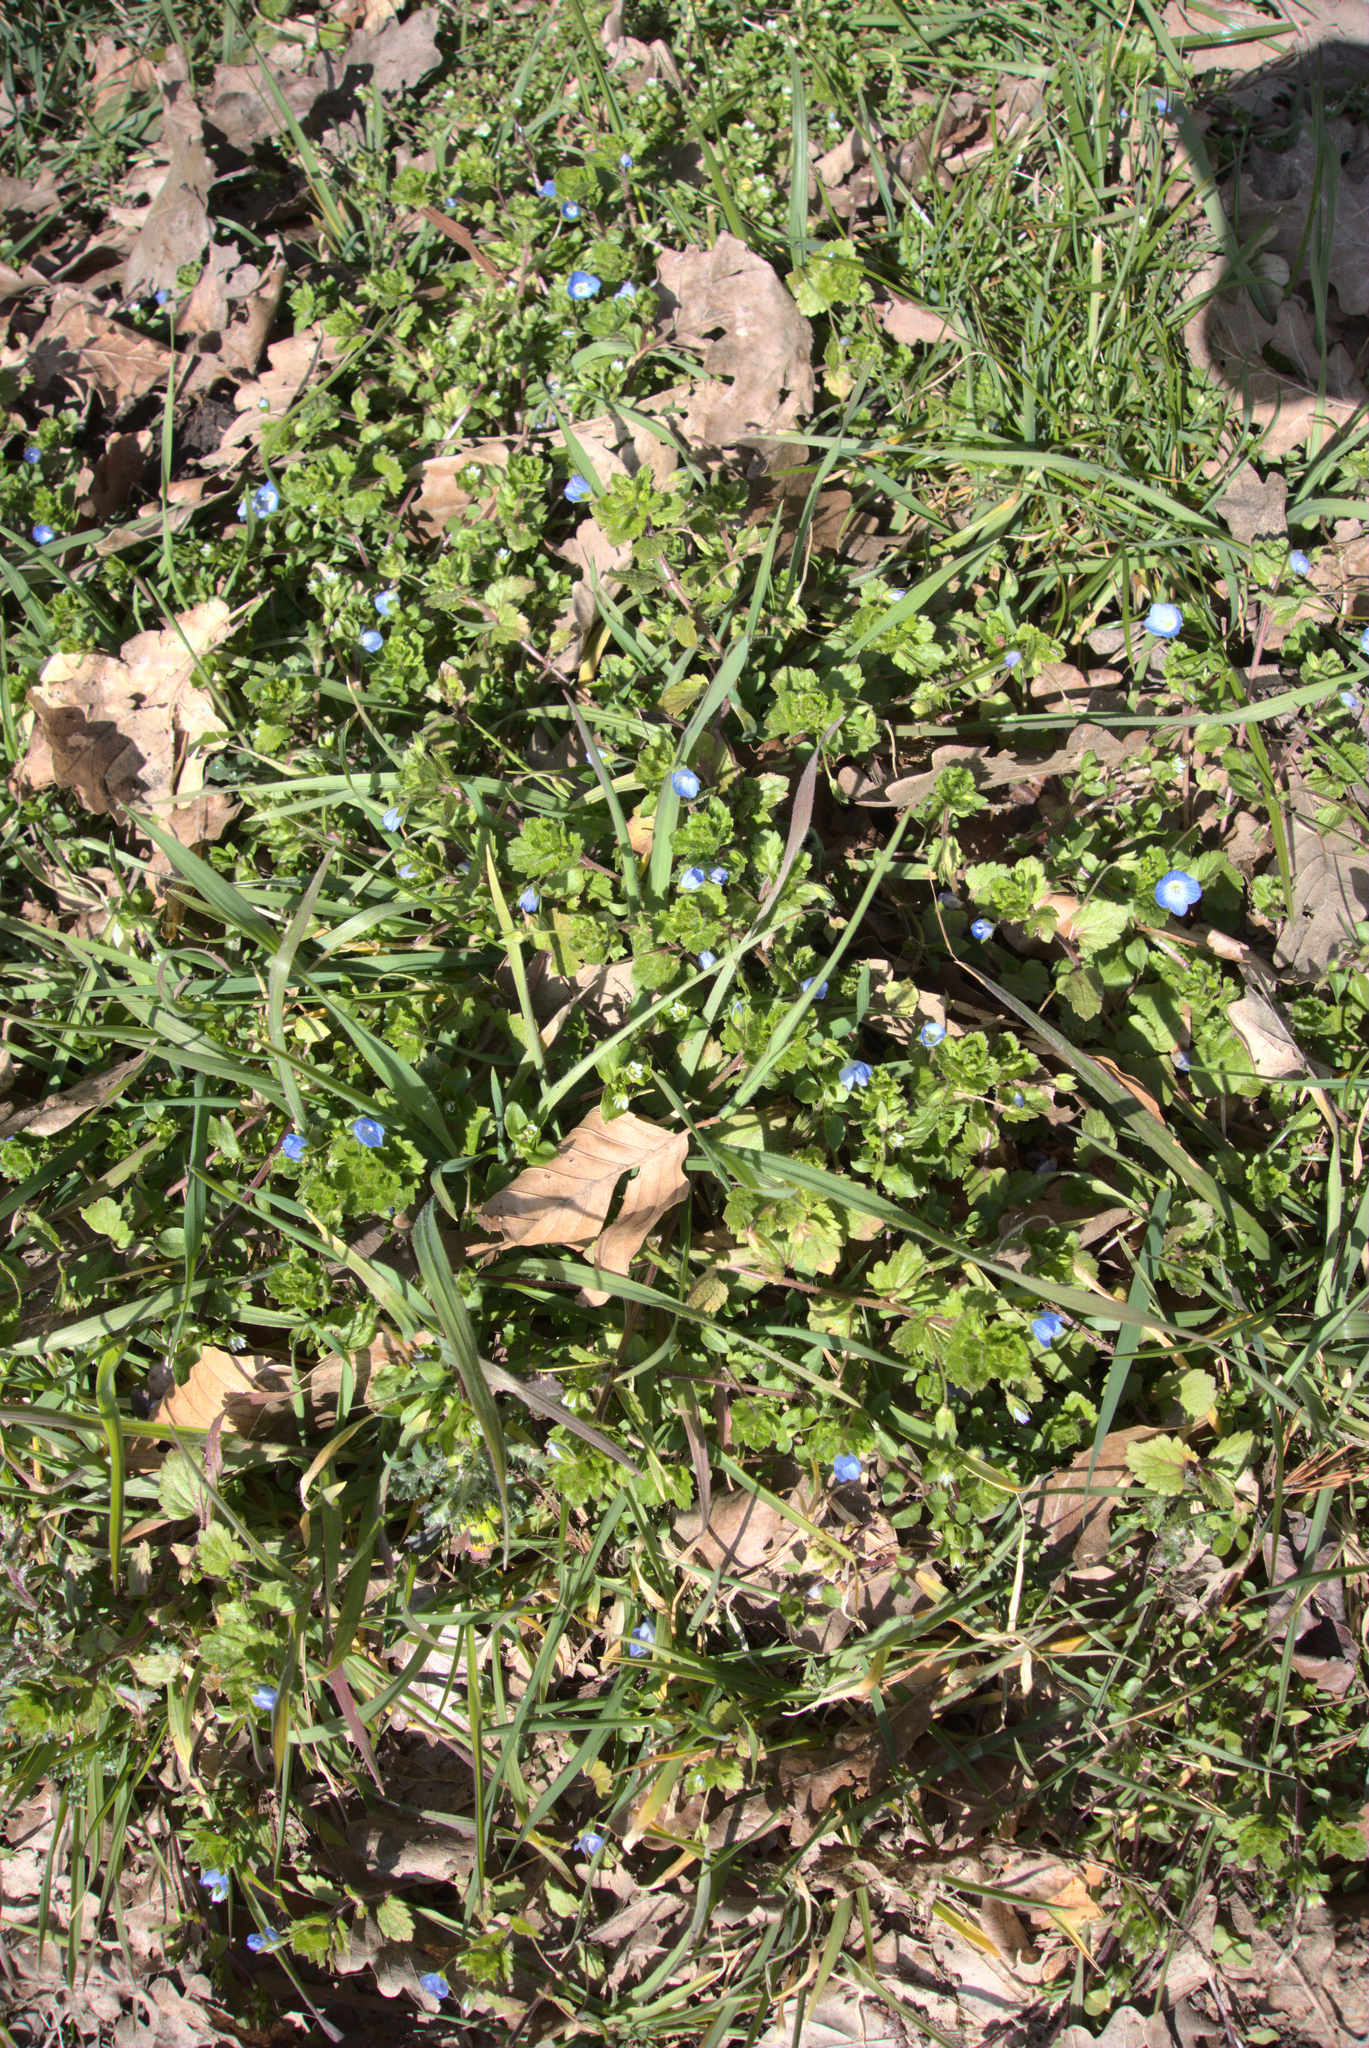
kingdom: Plantae
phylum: Tracheophyta
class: Magnoliopsida
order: Lamiales
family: Plantaginaceae
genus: Veronica
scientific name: Veronica persica
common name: Common field-speedwell
